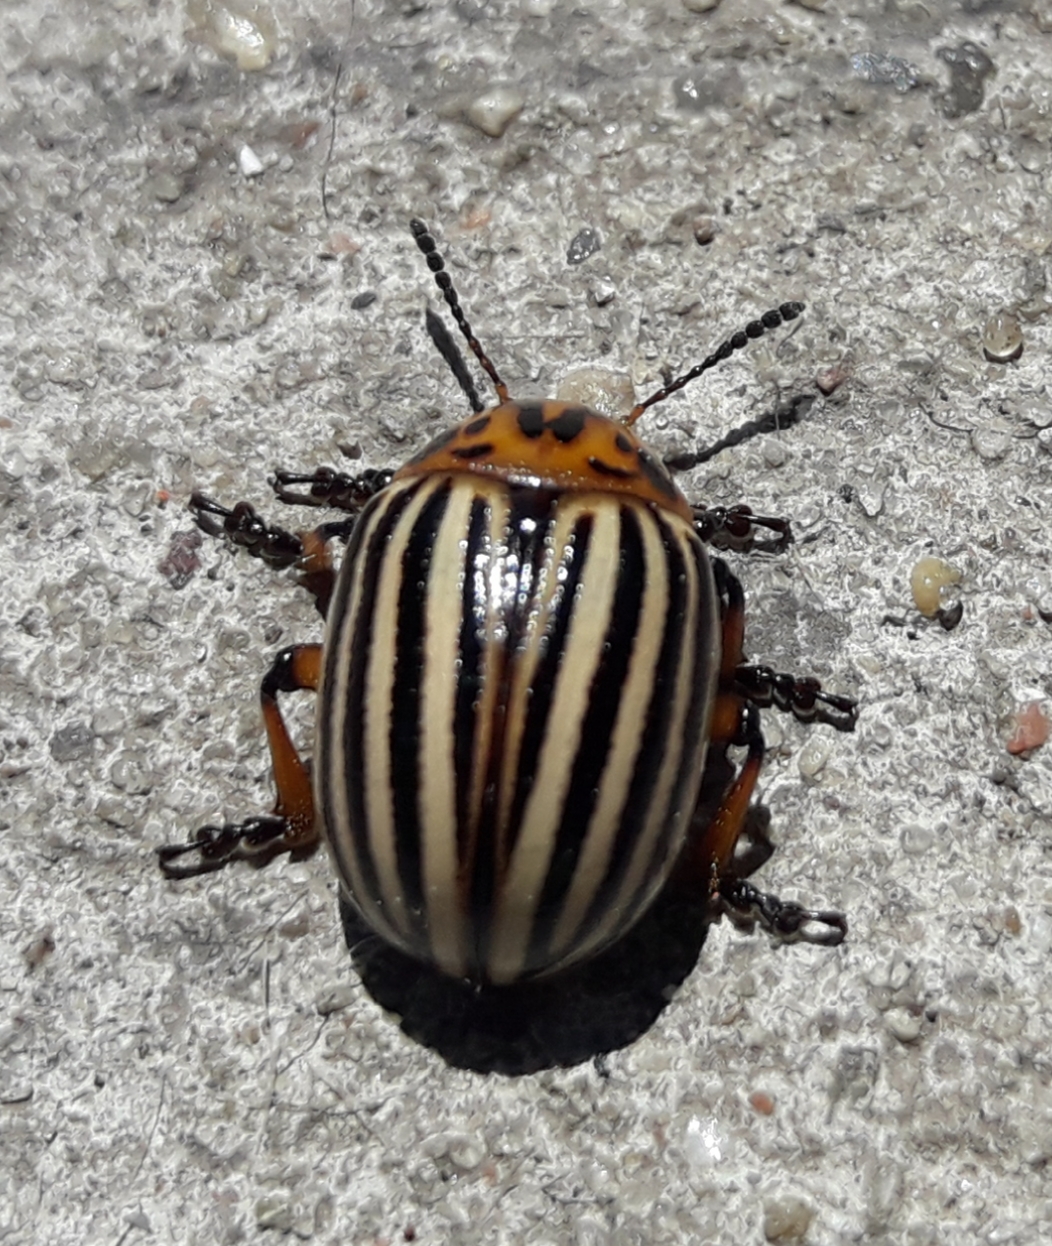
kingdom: Animalia
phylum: Arthropoda
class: Insecta
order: Coleoptera
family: Chrysomelidae
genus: Leptinotarsa
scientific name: Leptinotarsa decemlineata
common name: Colorado potato beetle
